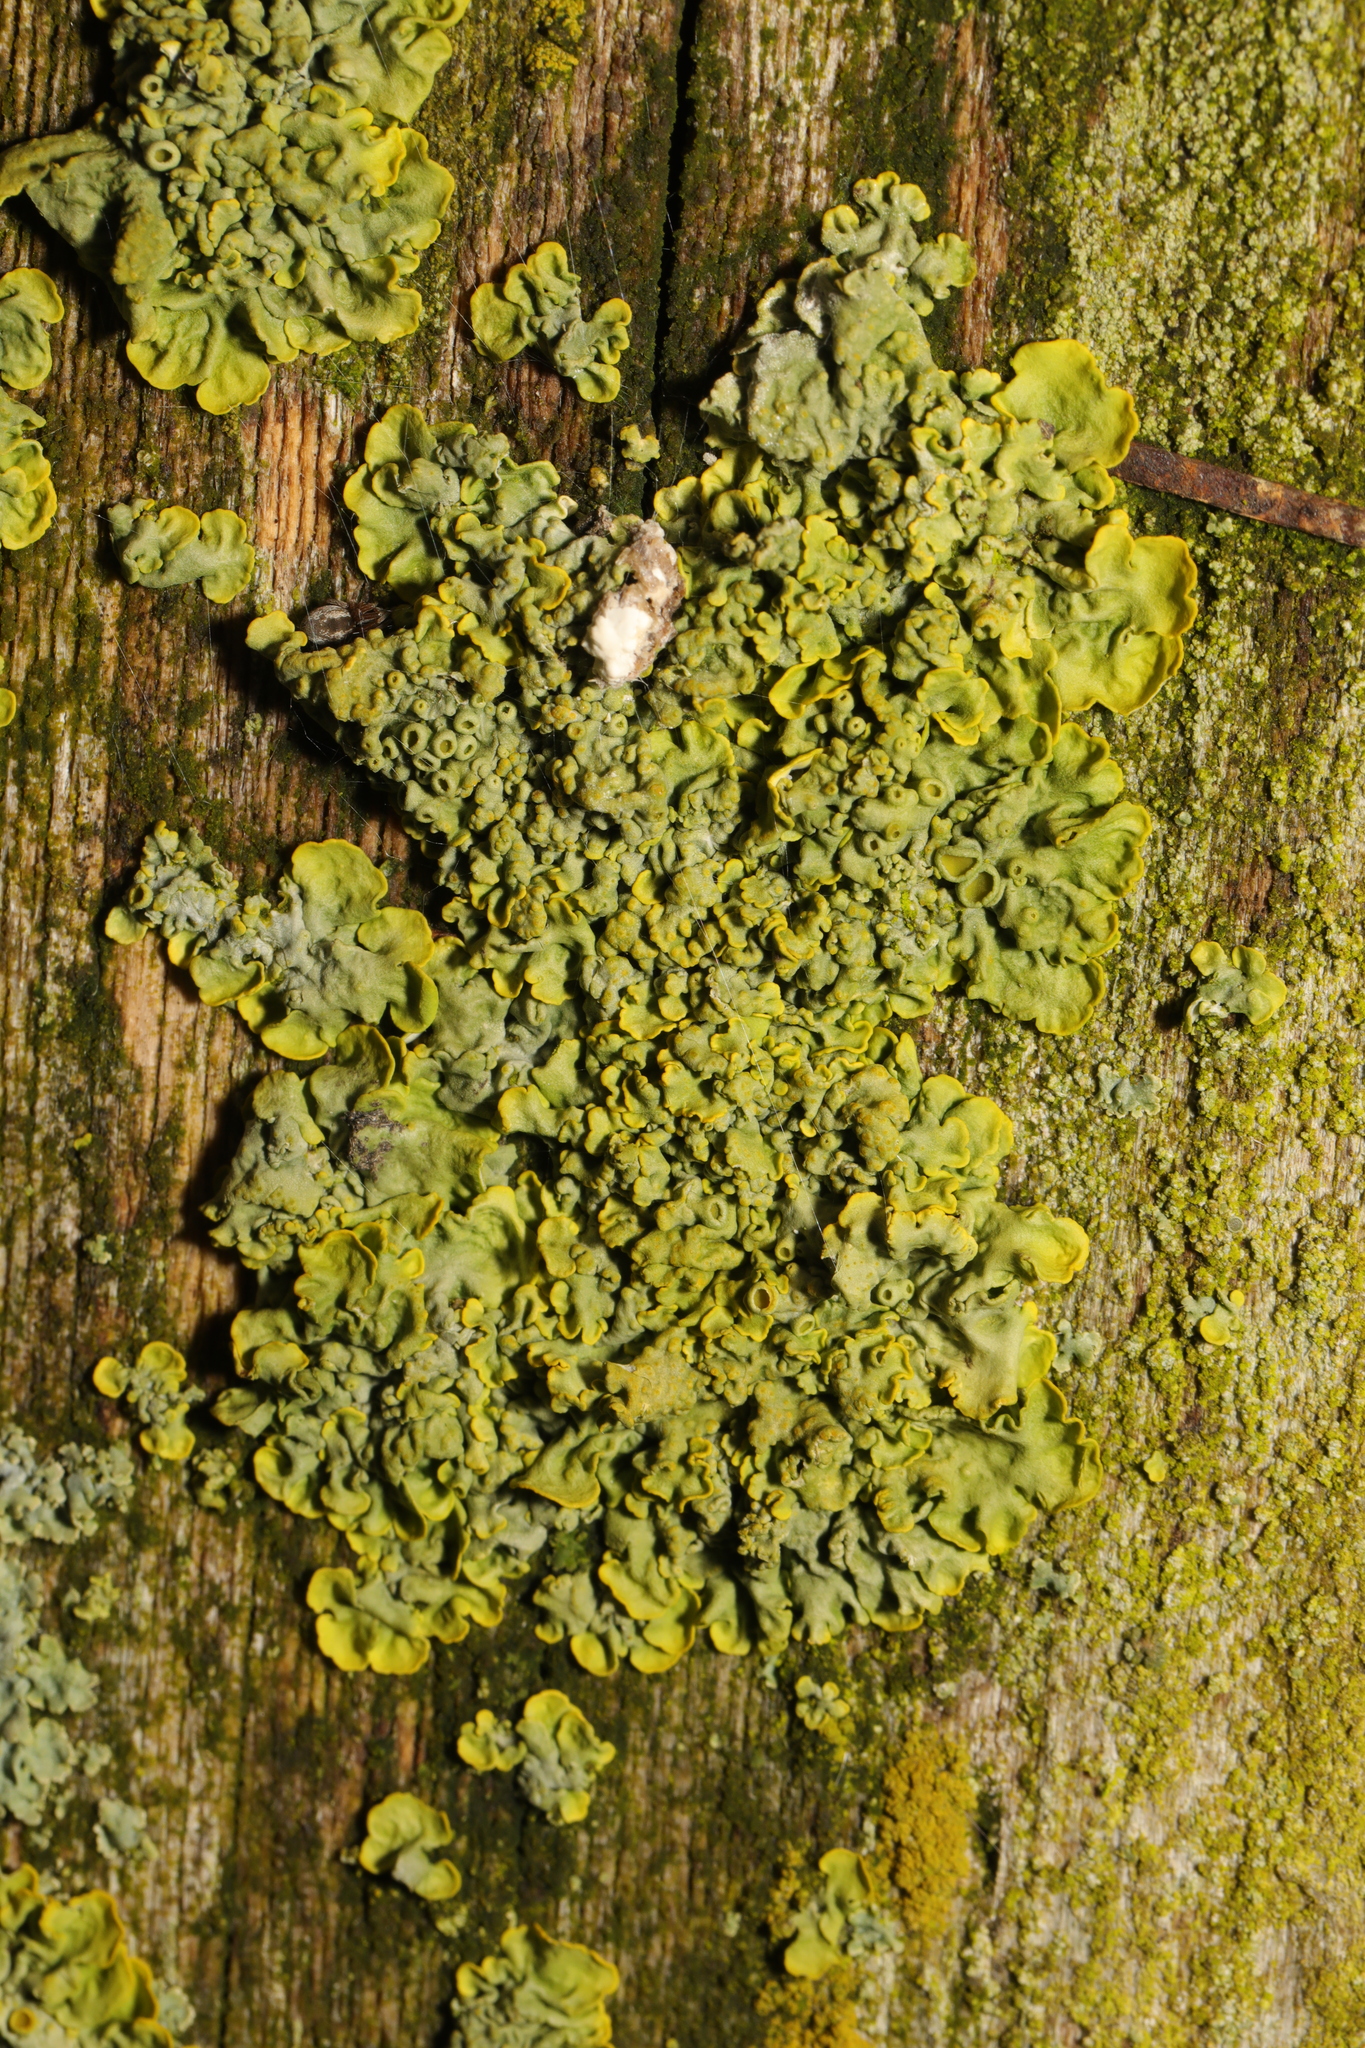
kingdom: Fungi
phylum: Ascomycota
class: Lecanoromycetes
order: Teloschistales
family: Teloschistaceae
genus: Xanthoria
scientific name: Xanthoria parietina
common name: Common orange lichen
